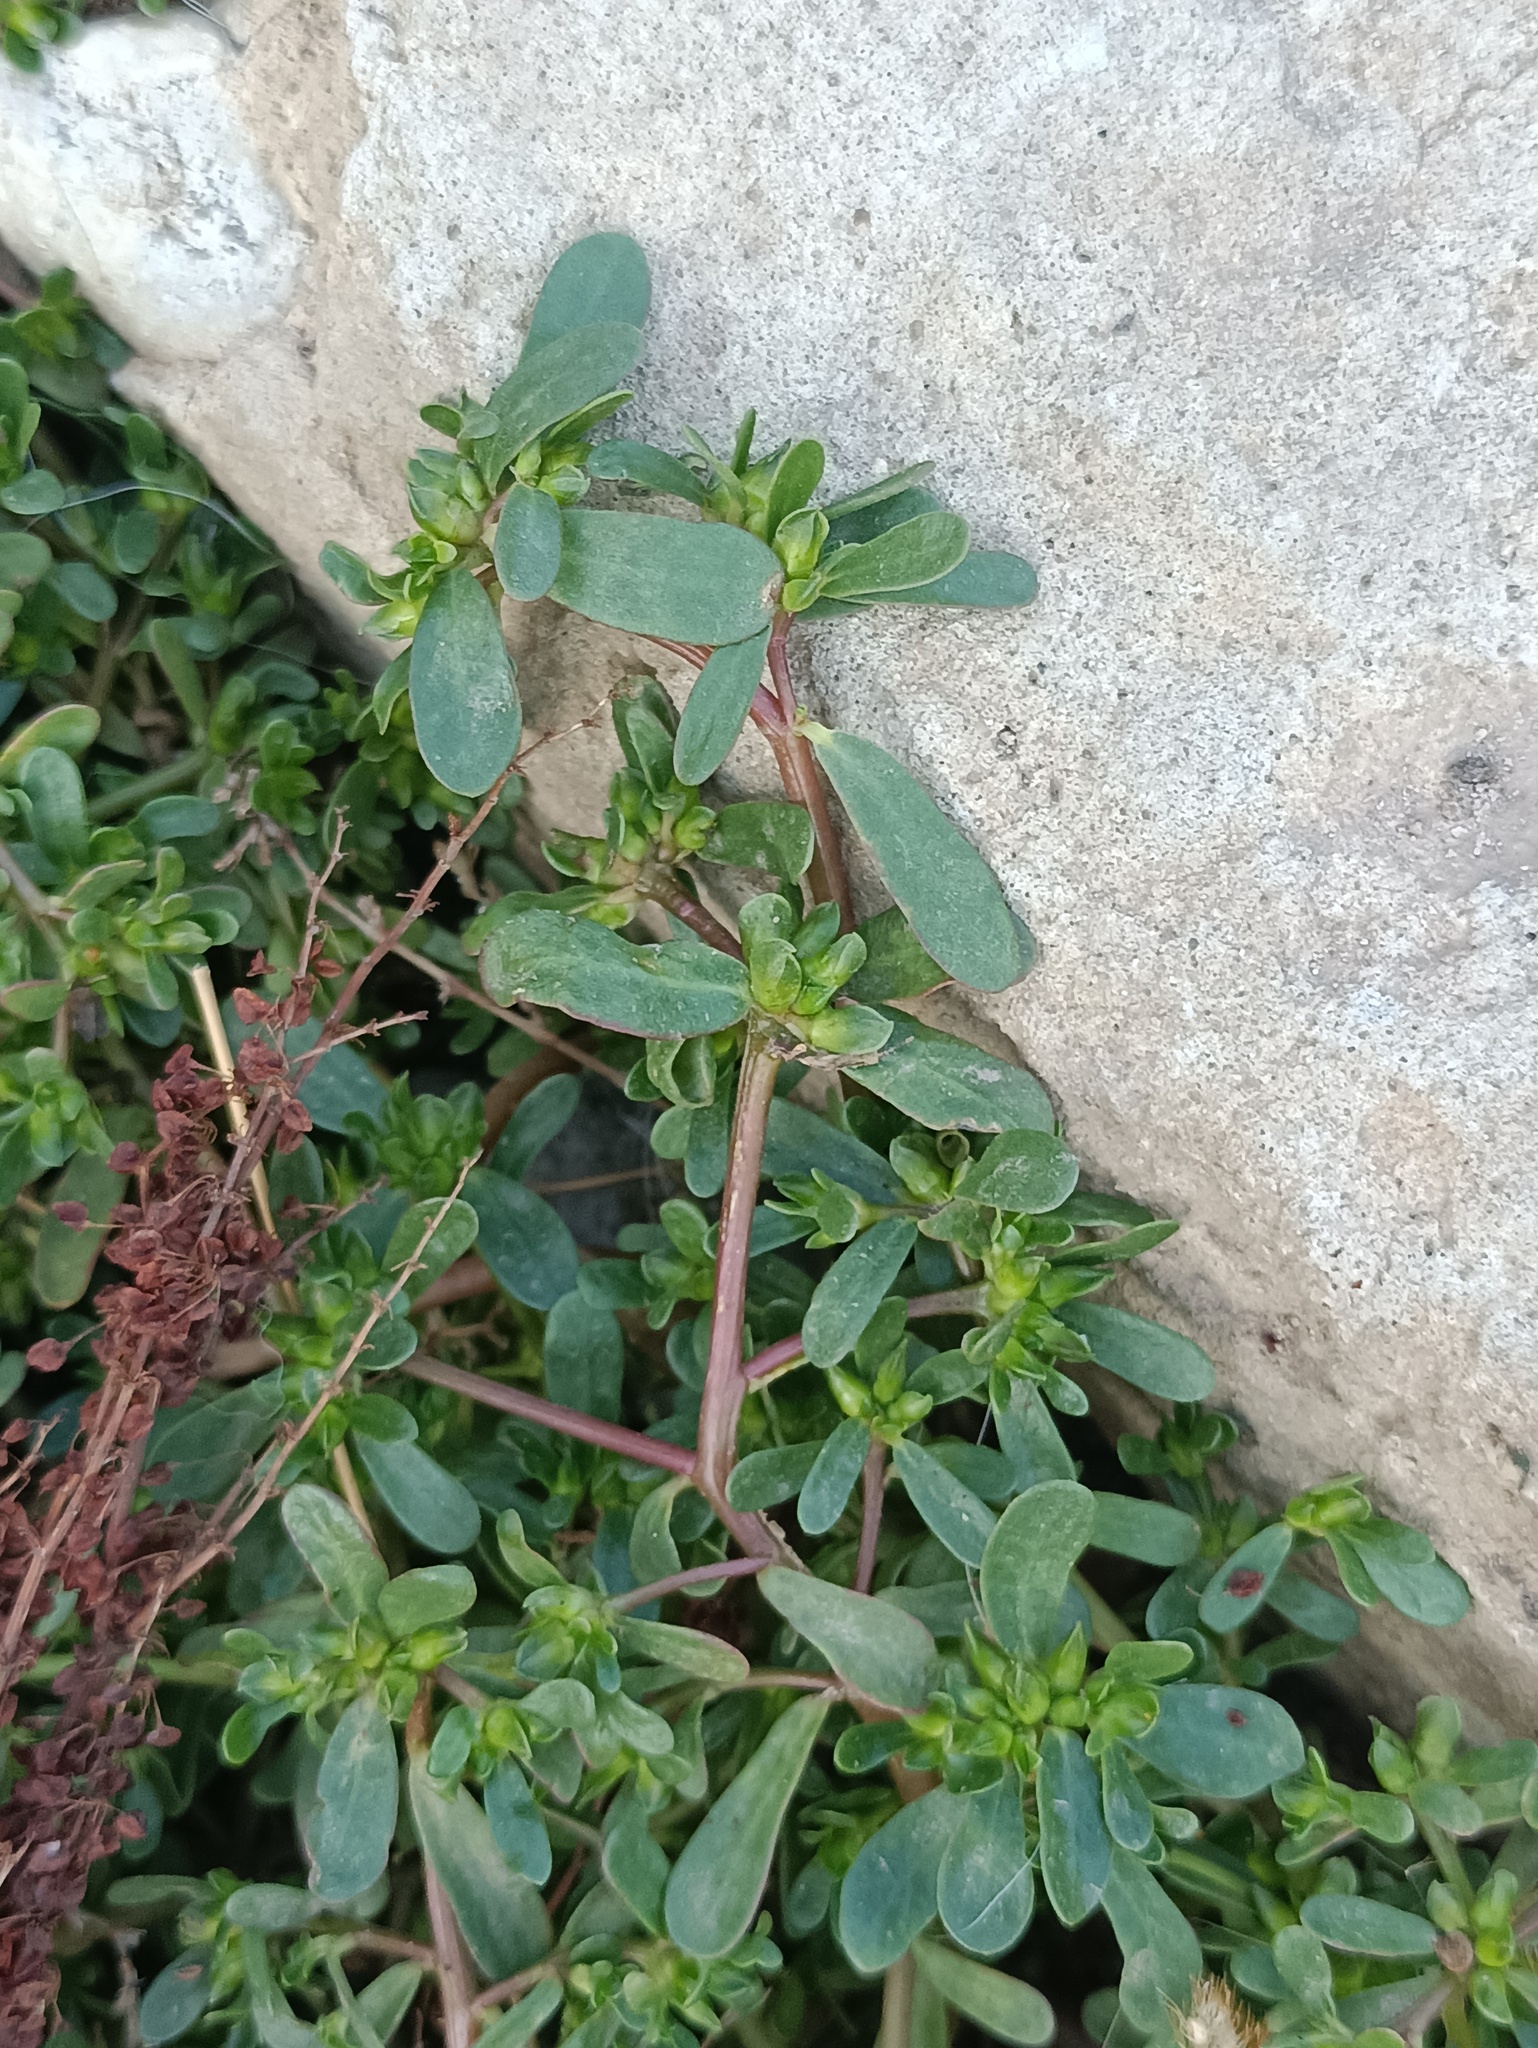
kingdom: Plantae
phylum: Tracheophyta
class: Magnoliopsida
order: Caryophyllales
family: Portulacaceae
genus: Portulaca
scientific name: Portulaca oleracea
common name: Common purslane
